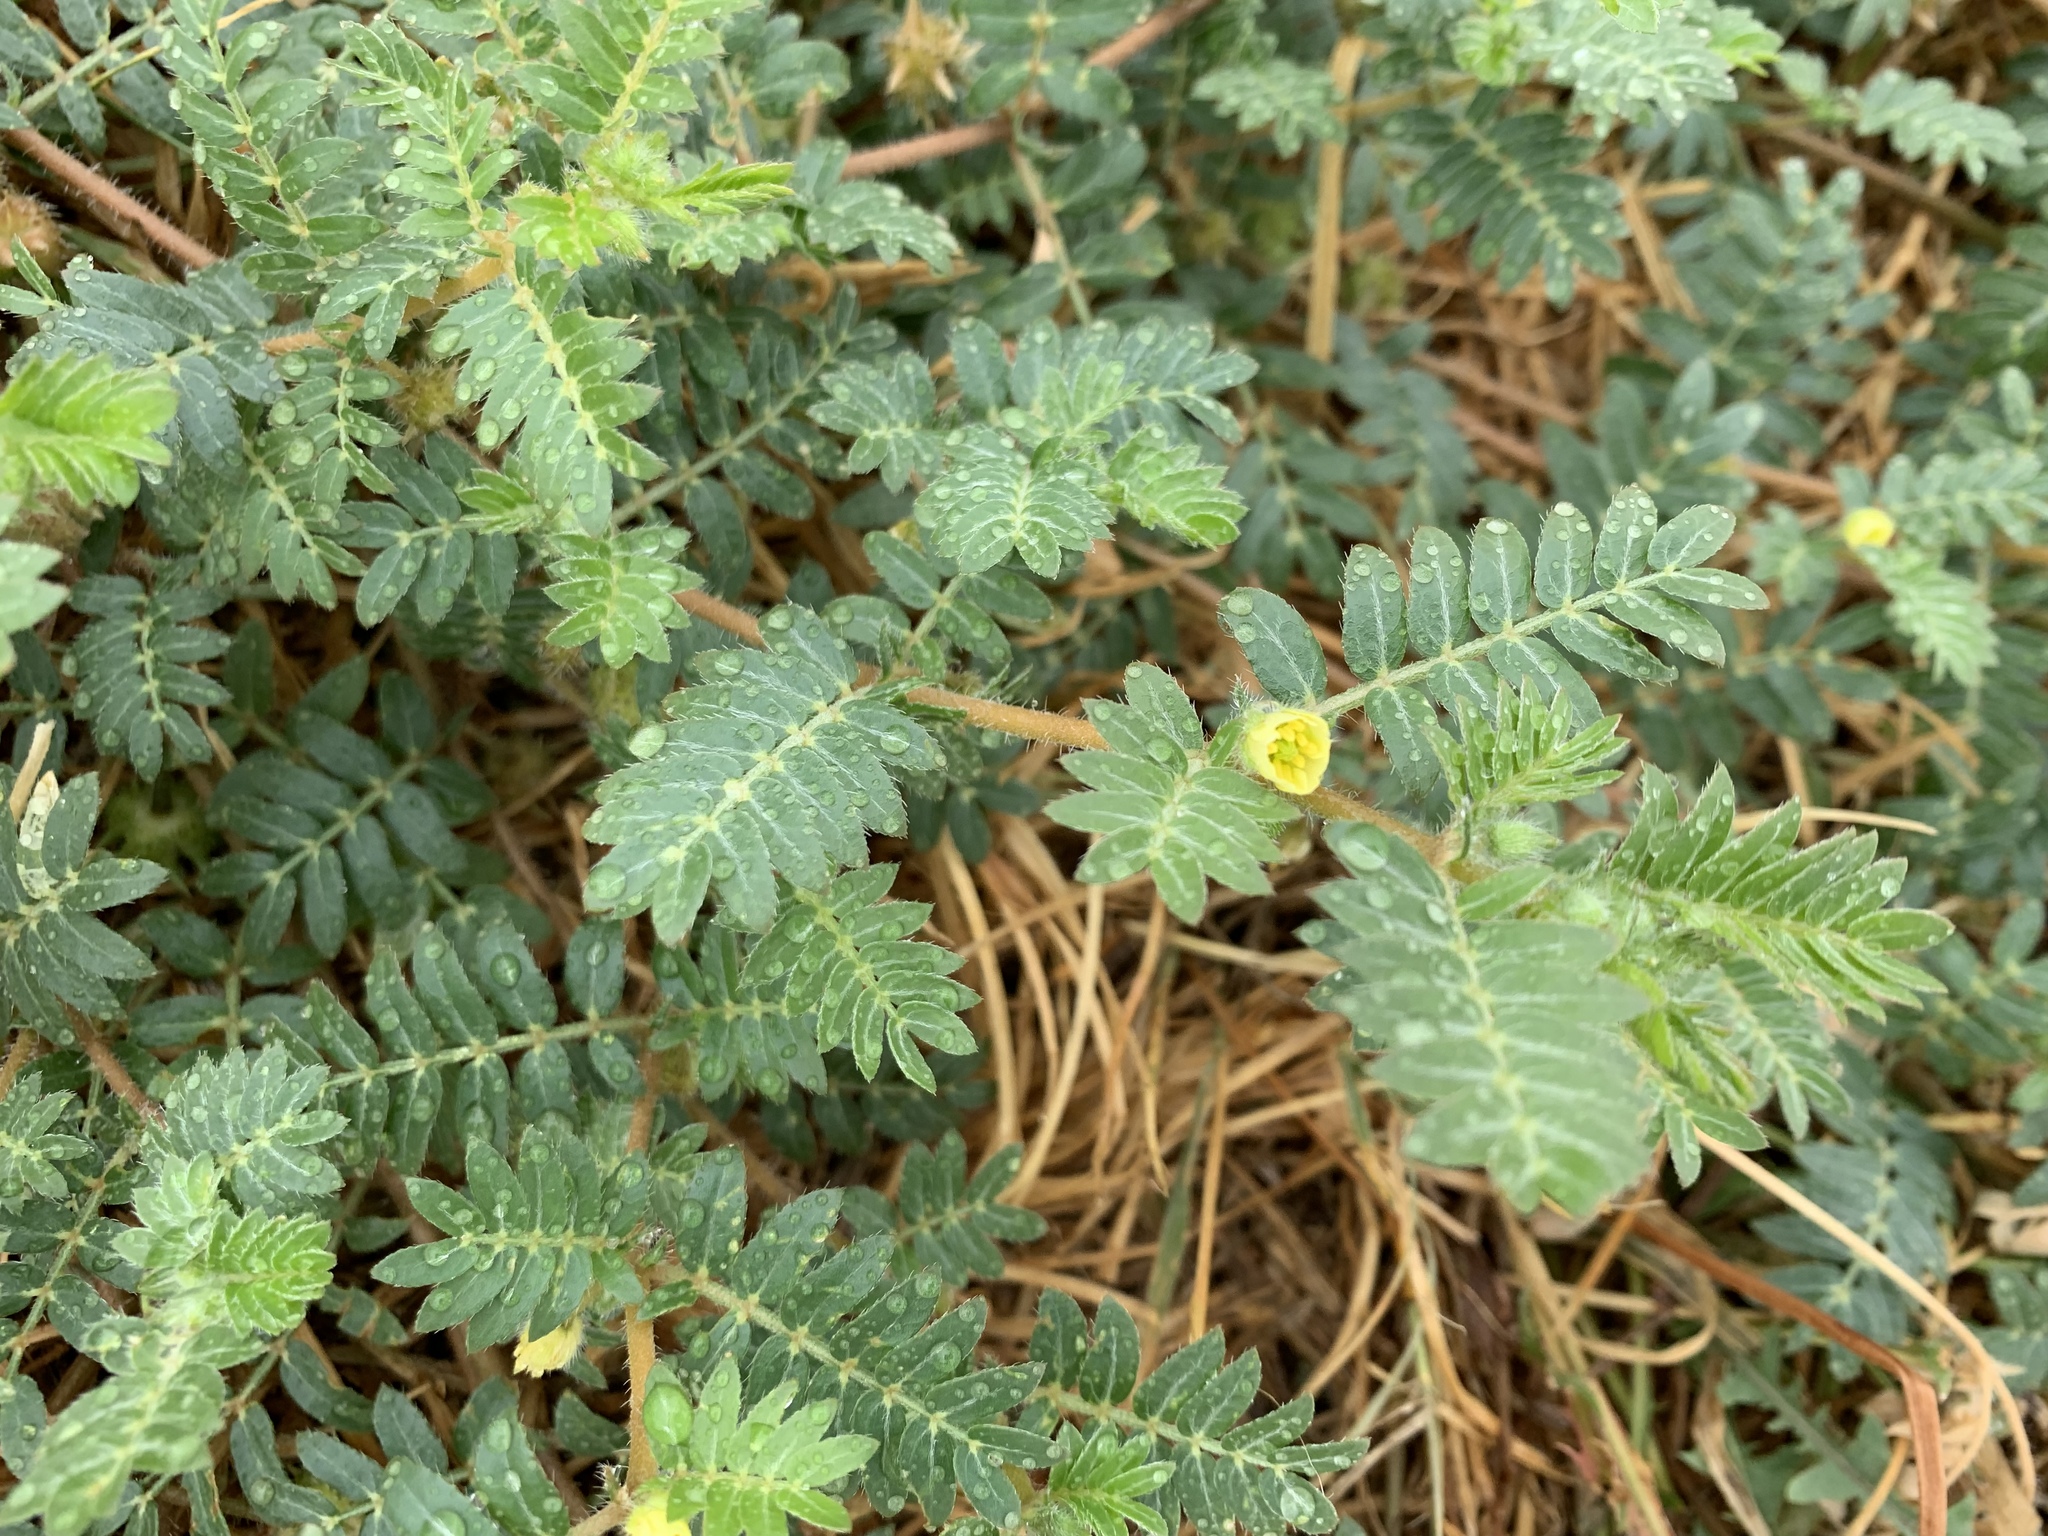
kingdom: Plantae
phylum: Tracheophyta
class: Magnoliopsida
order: Zygophyllales
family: Zygophyllaceae
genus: Tribulus
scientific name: Tribulus terrestris
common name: Puncturevine
